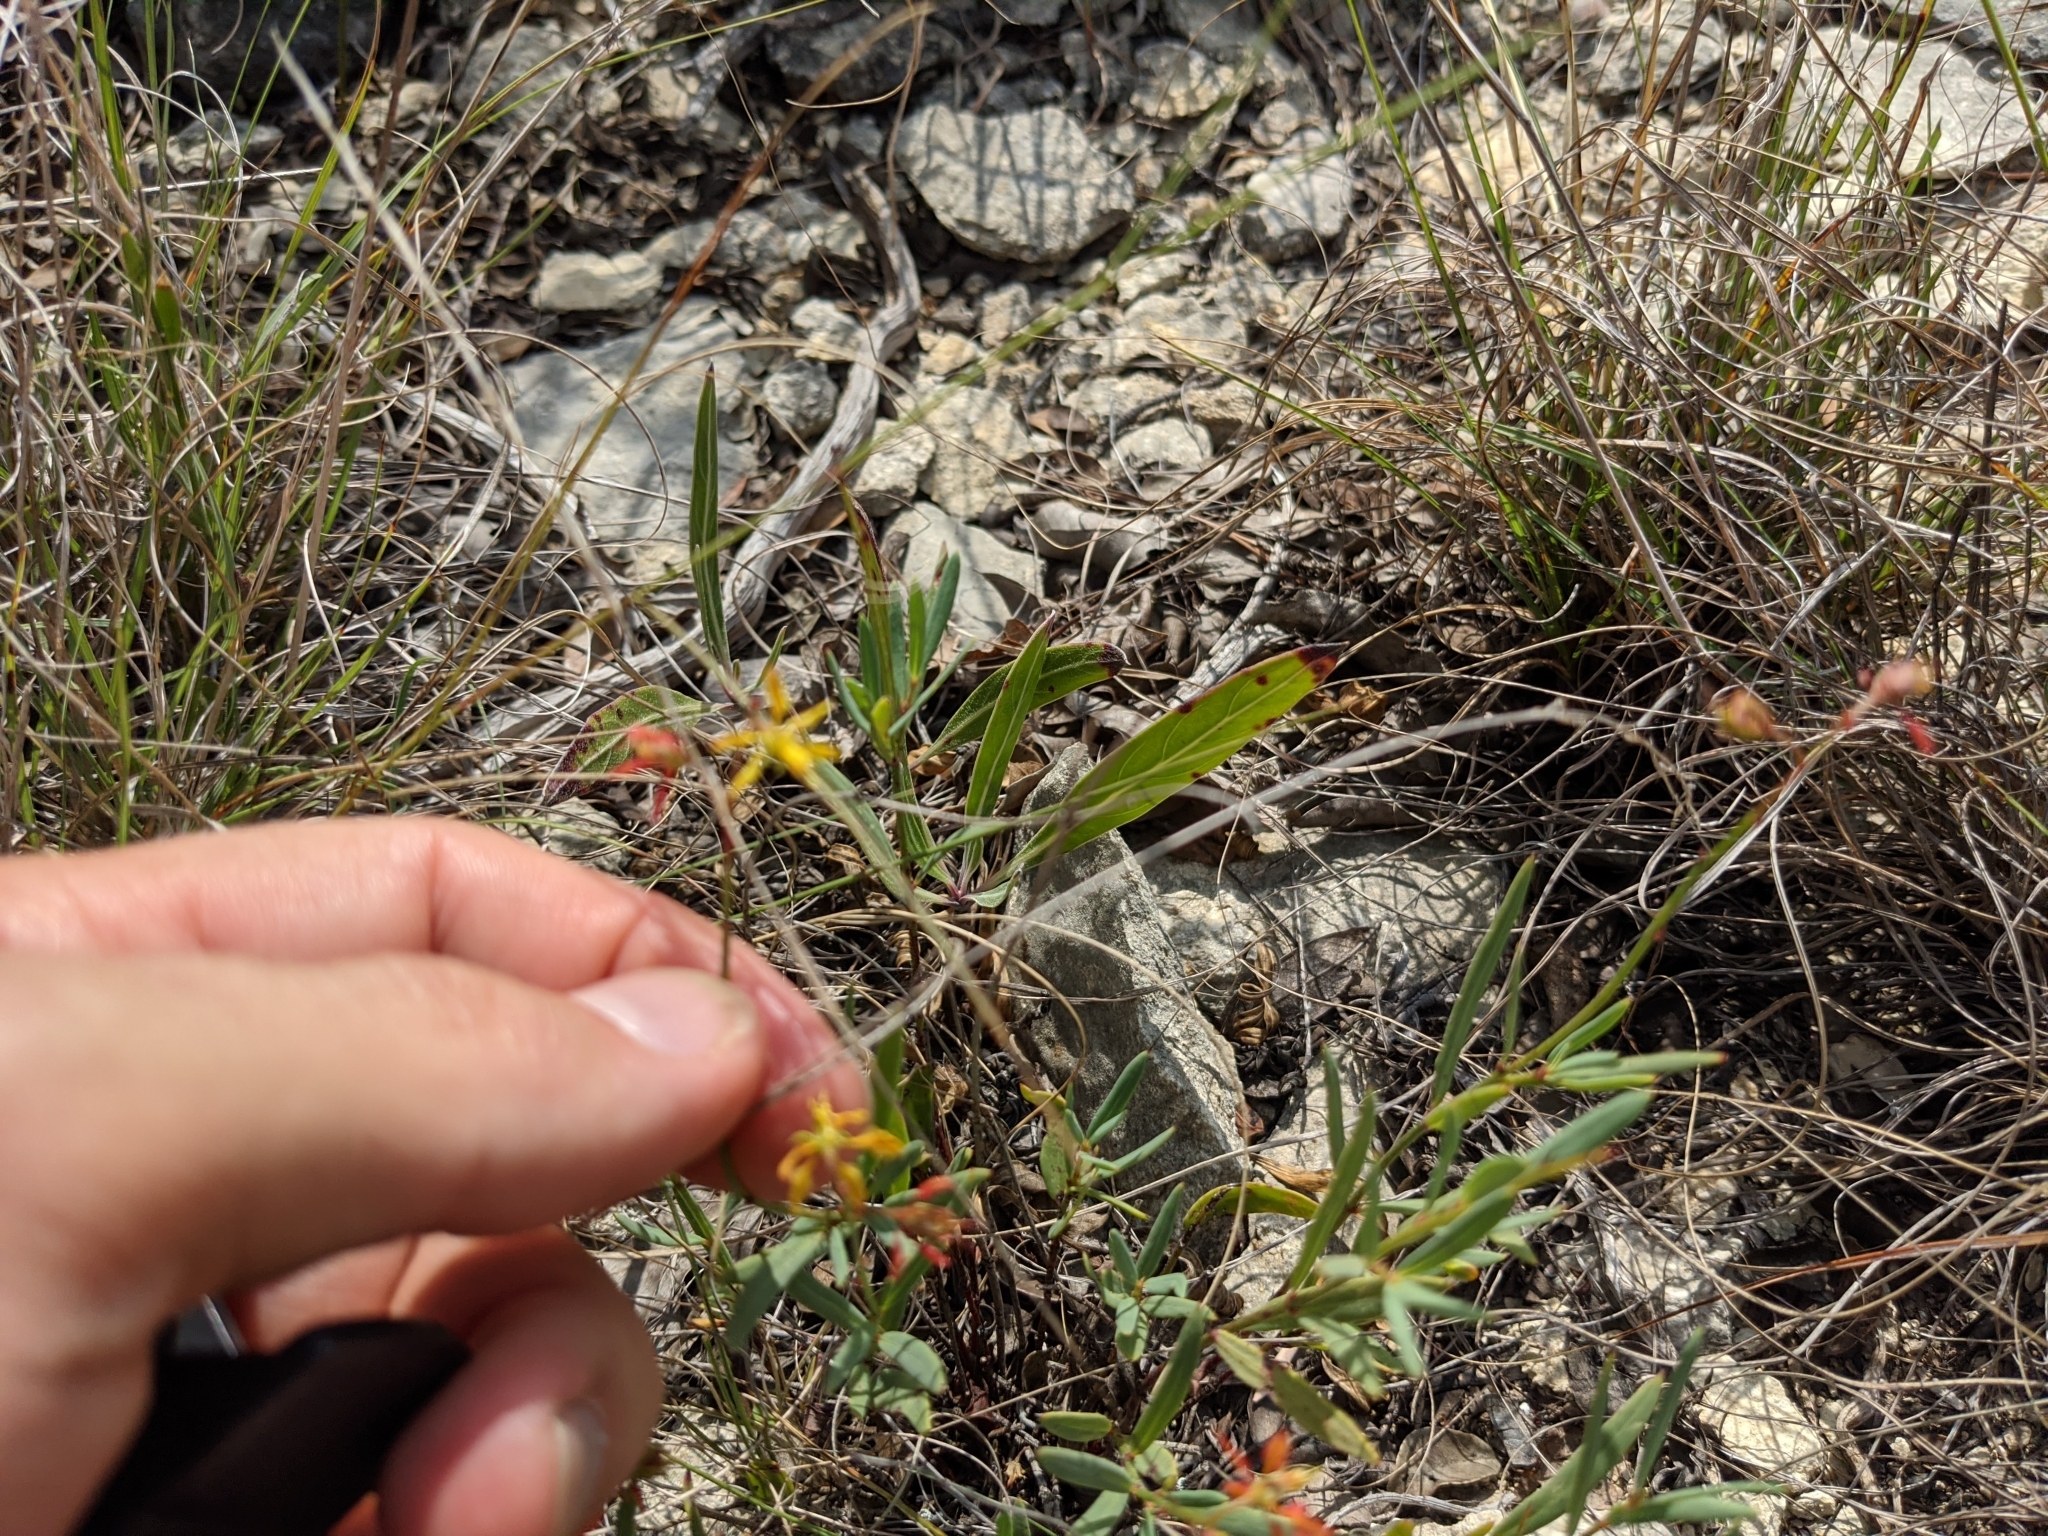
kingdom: Plantae
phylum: Tracheophyta
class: Magnoliopsida
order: Malpighiales
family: Malpighiaceae
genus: Galphimia
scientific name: Galphimia angustifolia
